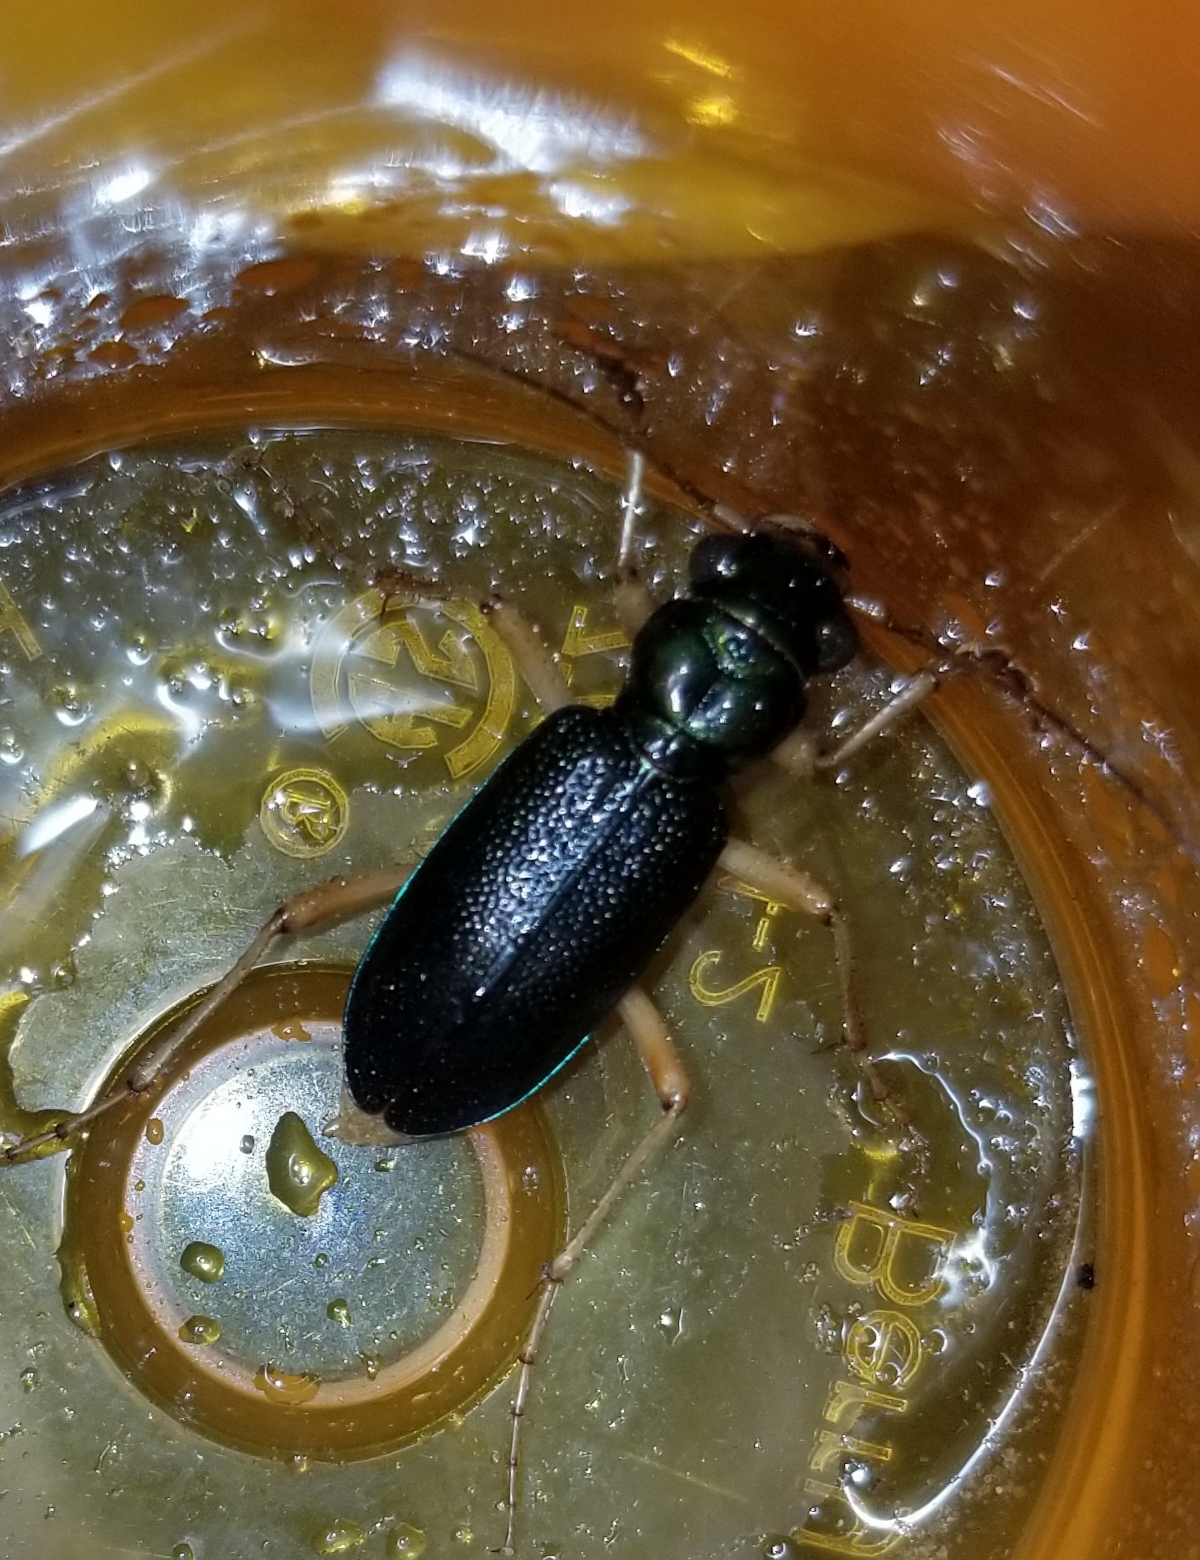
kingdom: Animalia
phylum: Arthropoda
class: Insecta
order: Coleoptera
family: Carabidae
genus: Tetracha
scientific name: Tetracha virginica
